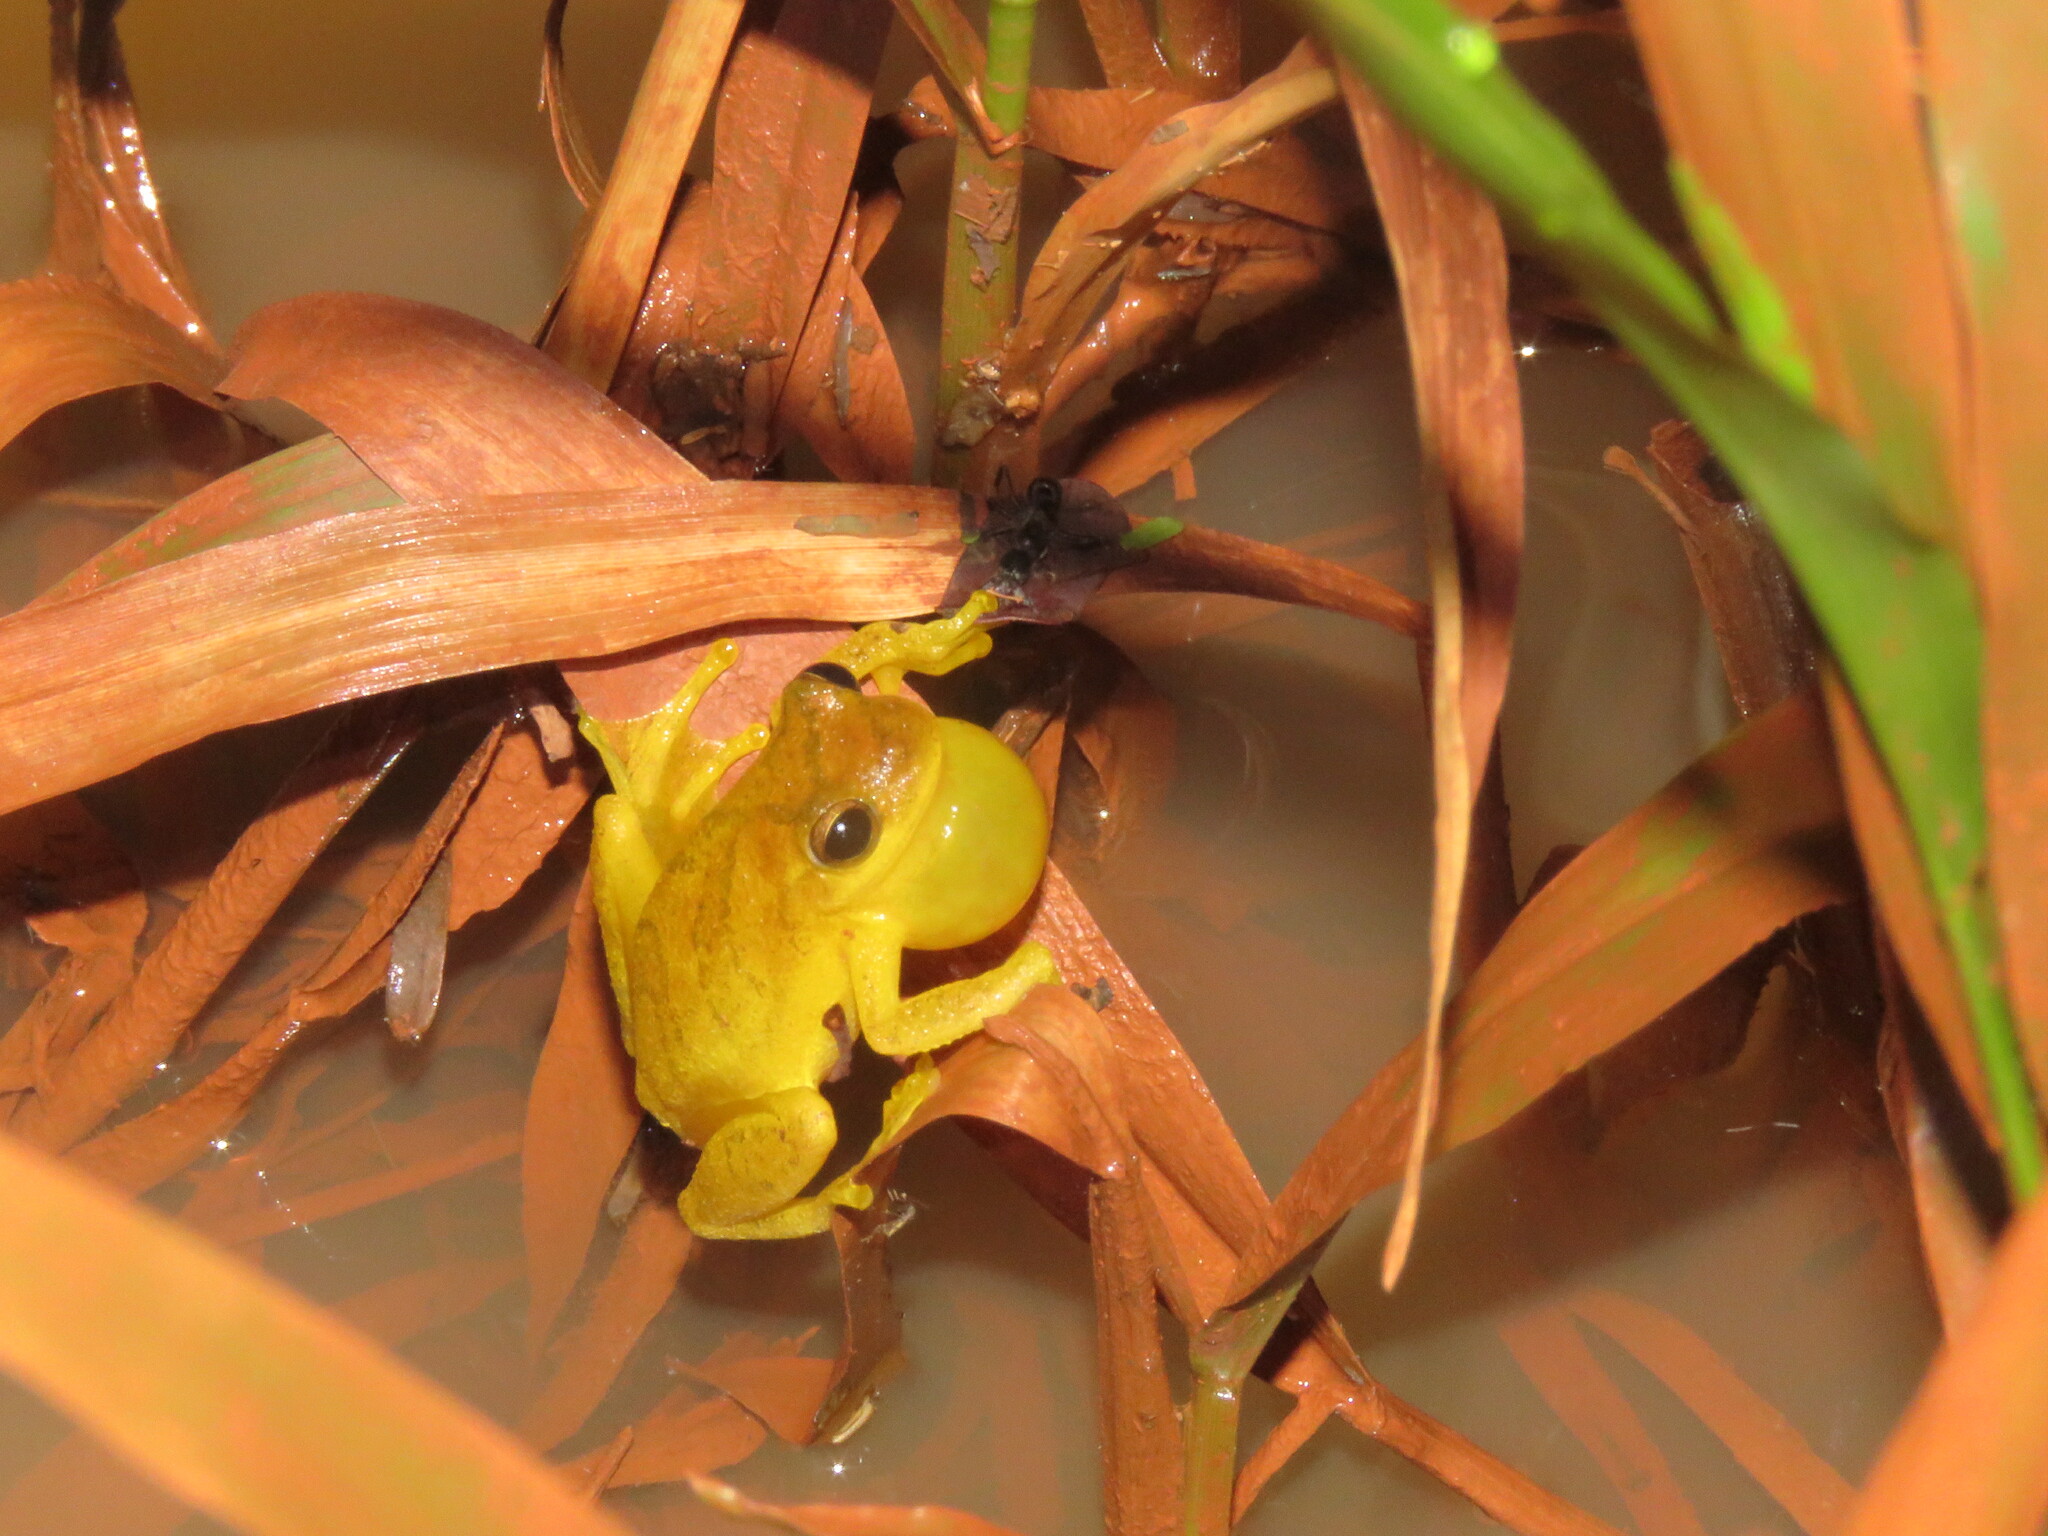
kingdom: Animalia
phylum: Chordata
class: Amphibia
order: Anura
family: Hylidae
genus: Dendropsophus
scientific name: Dendropsophus minutus
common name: Lesser treefrog
